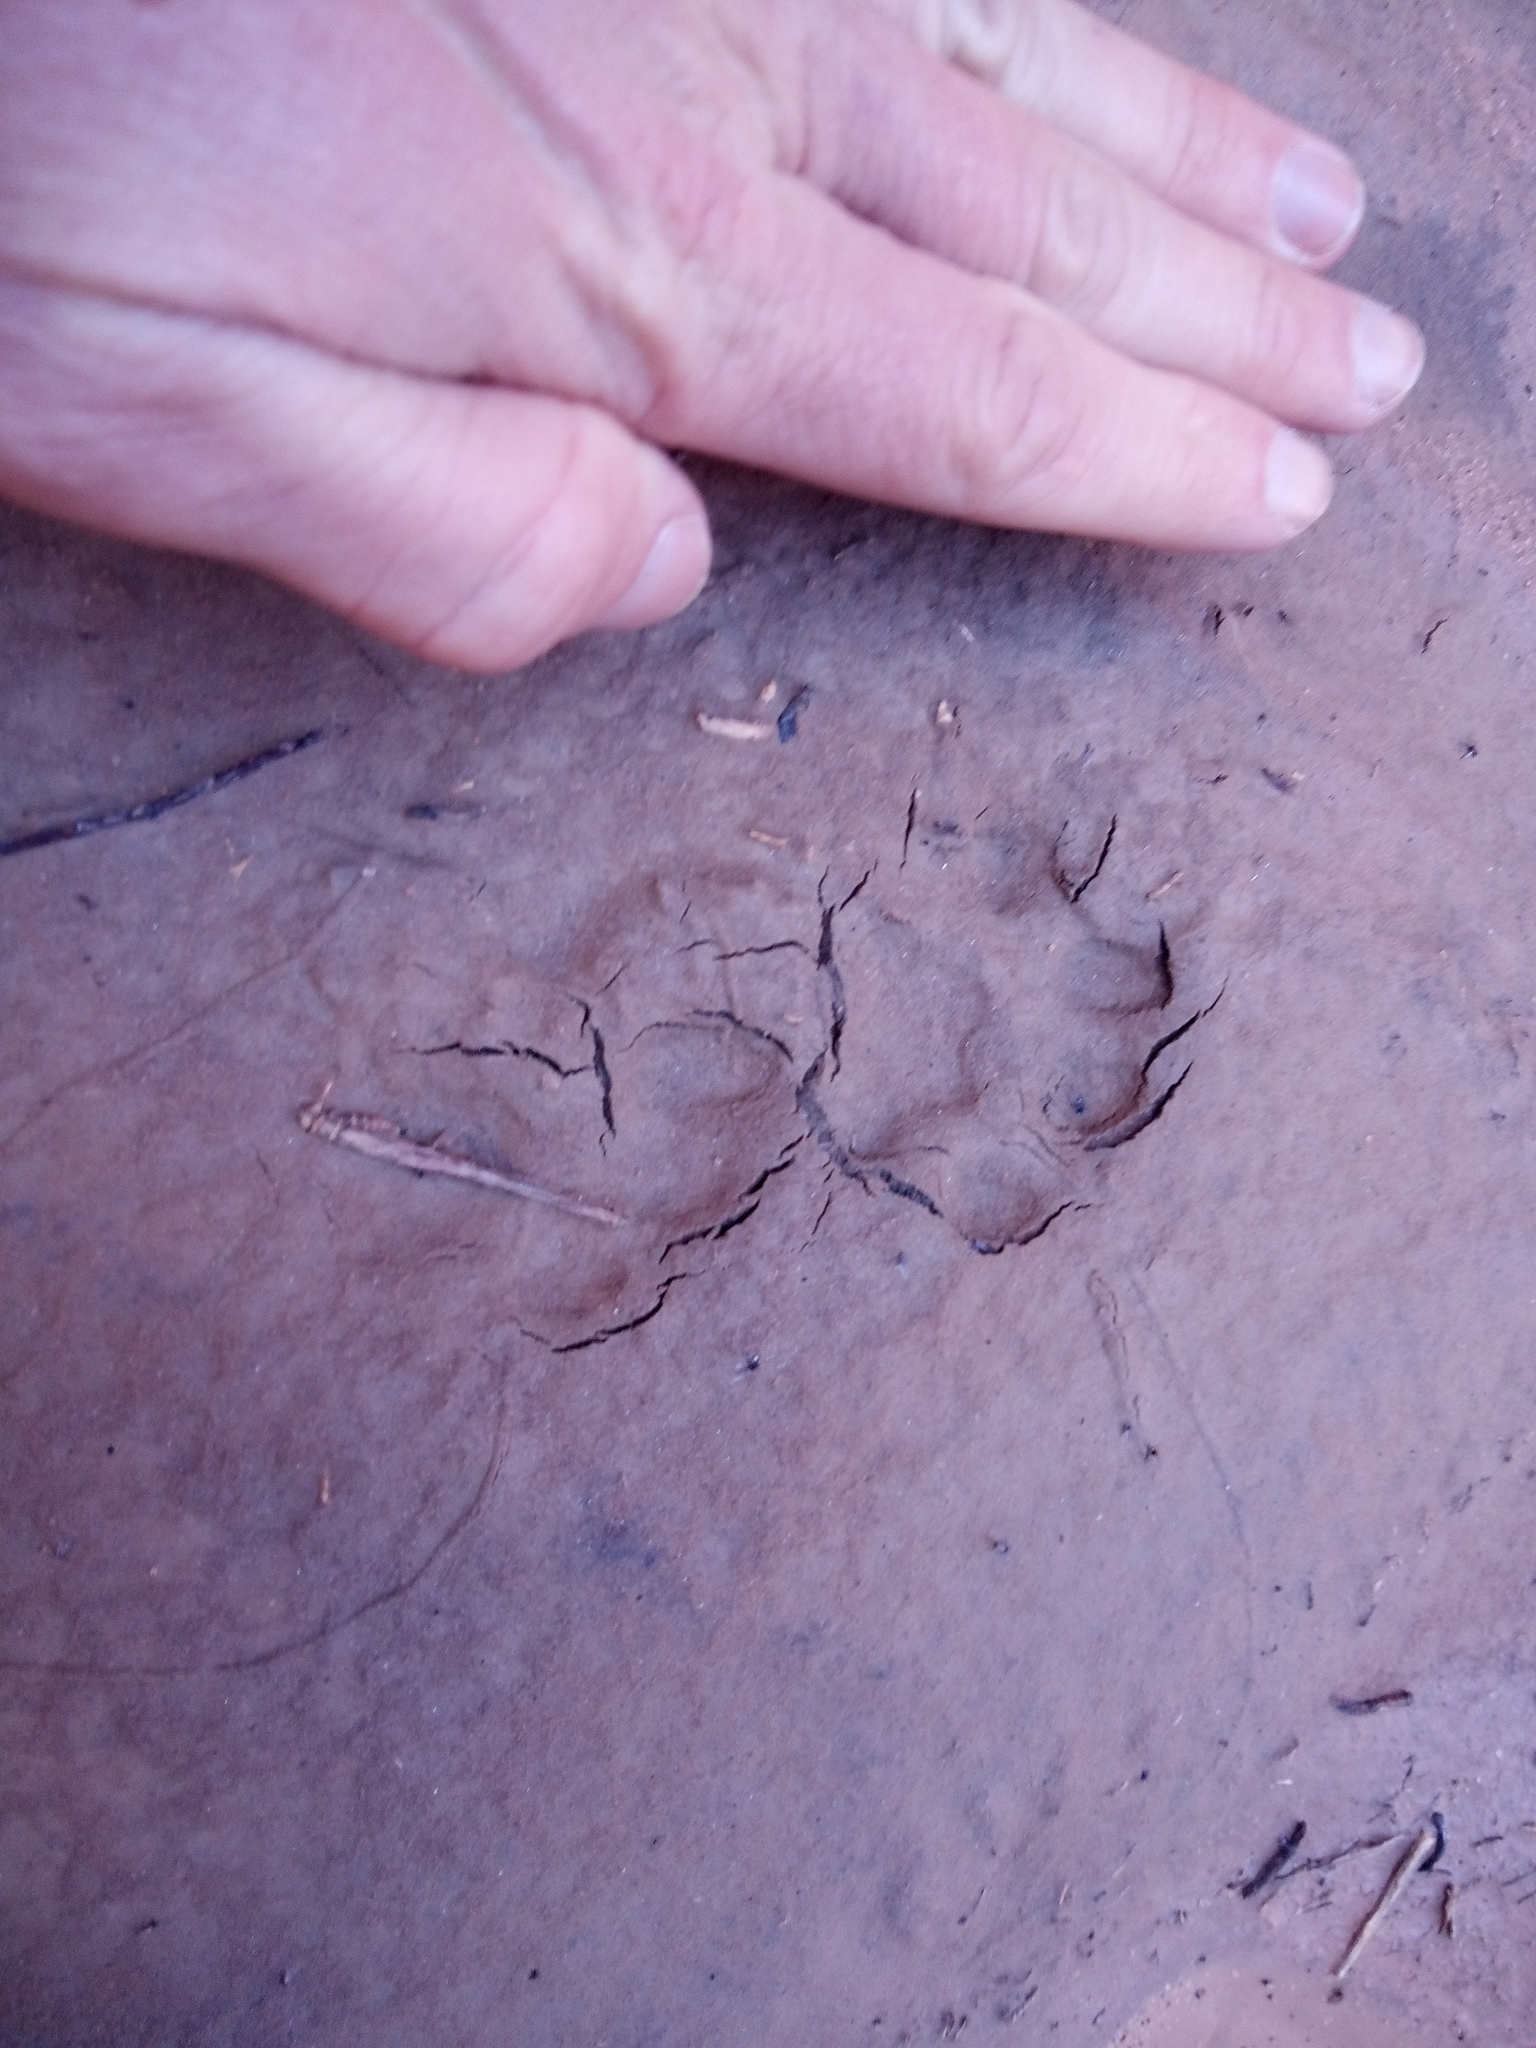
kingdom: Animalia
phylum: Chordata
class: Mammalia
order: Carnivora
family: Felidae
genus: Lynx
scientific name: Lynx rufus
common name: Bobcat
